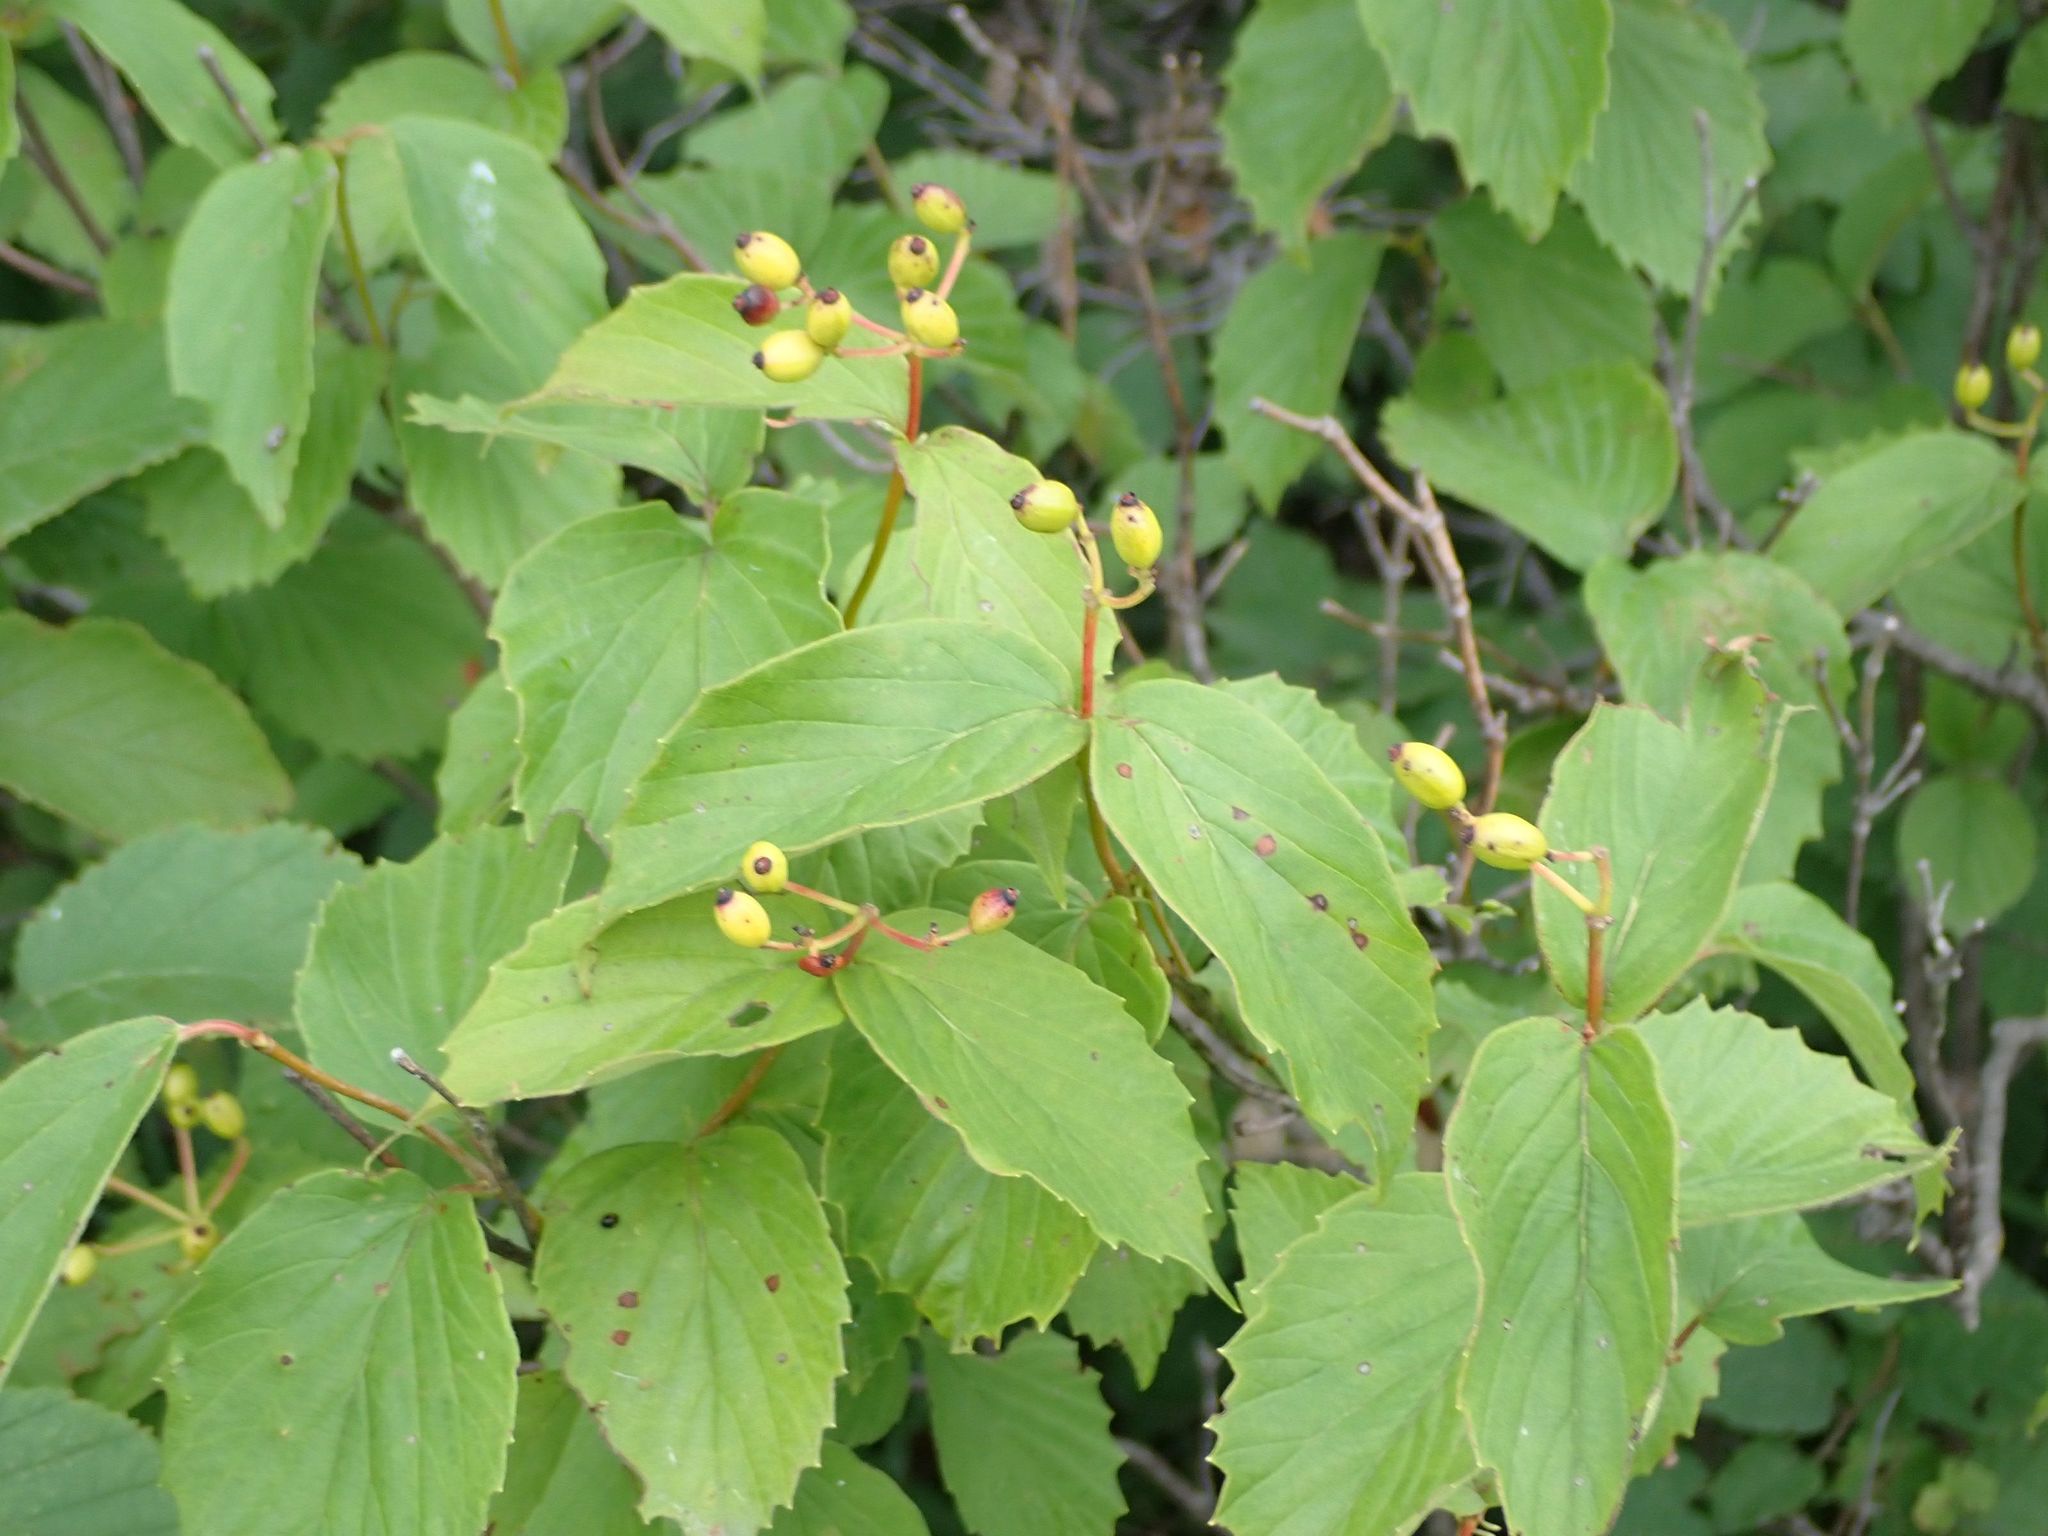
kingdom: Plantae
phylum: Tracheophyta
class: Magnoliopsida
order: Dipsacales
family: Viburnaceae
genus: Viburnum
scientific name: Viburnum rafinesqueanum
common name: Downy arrow-wood
